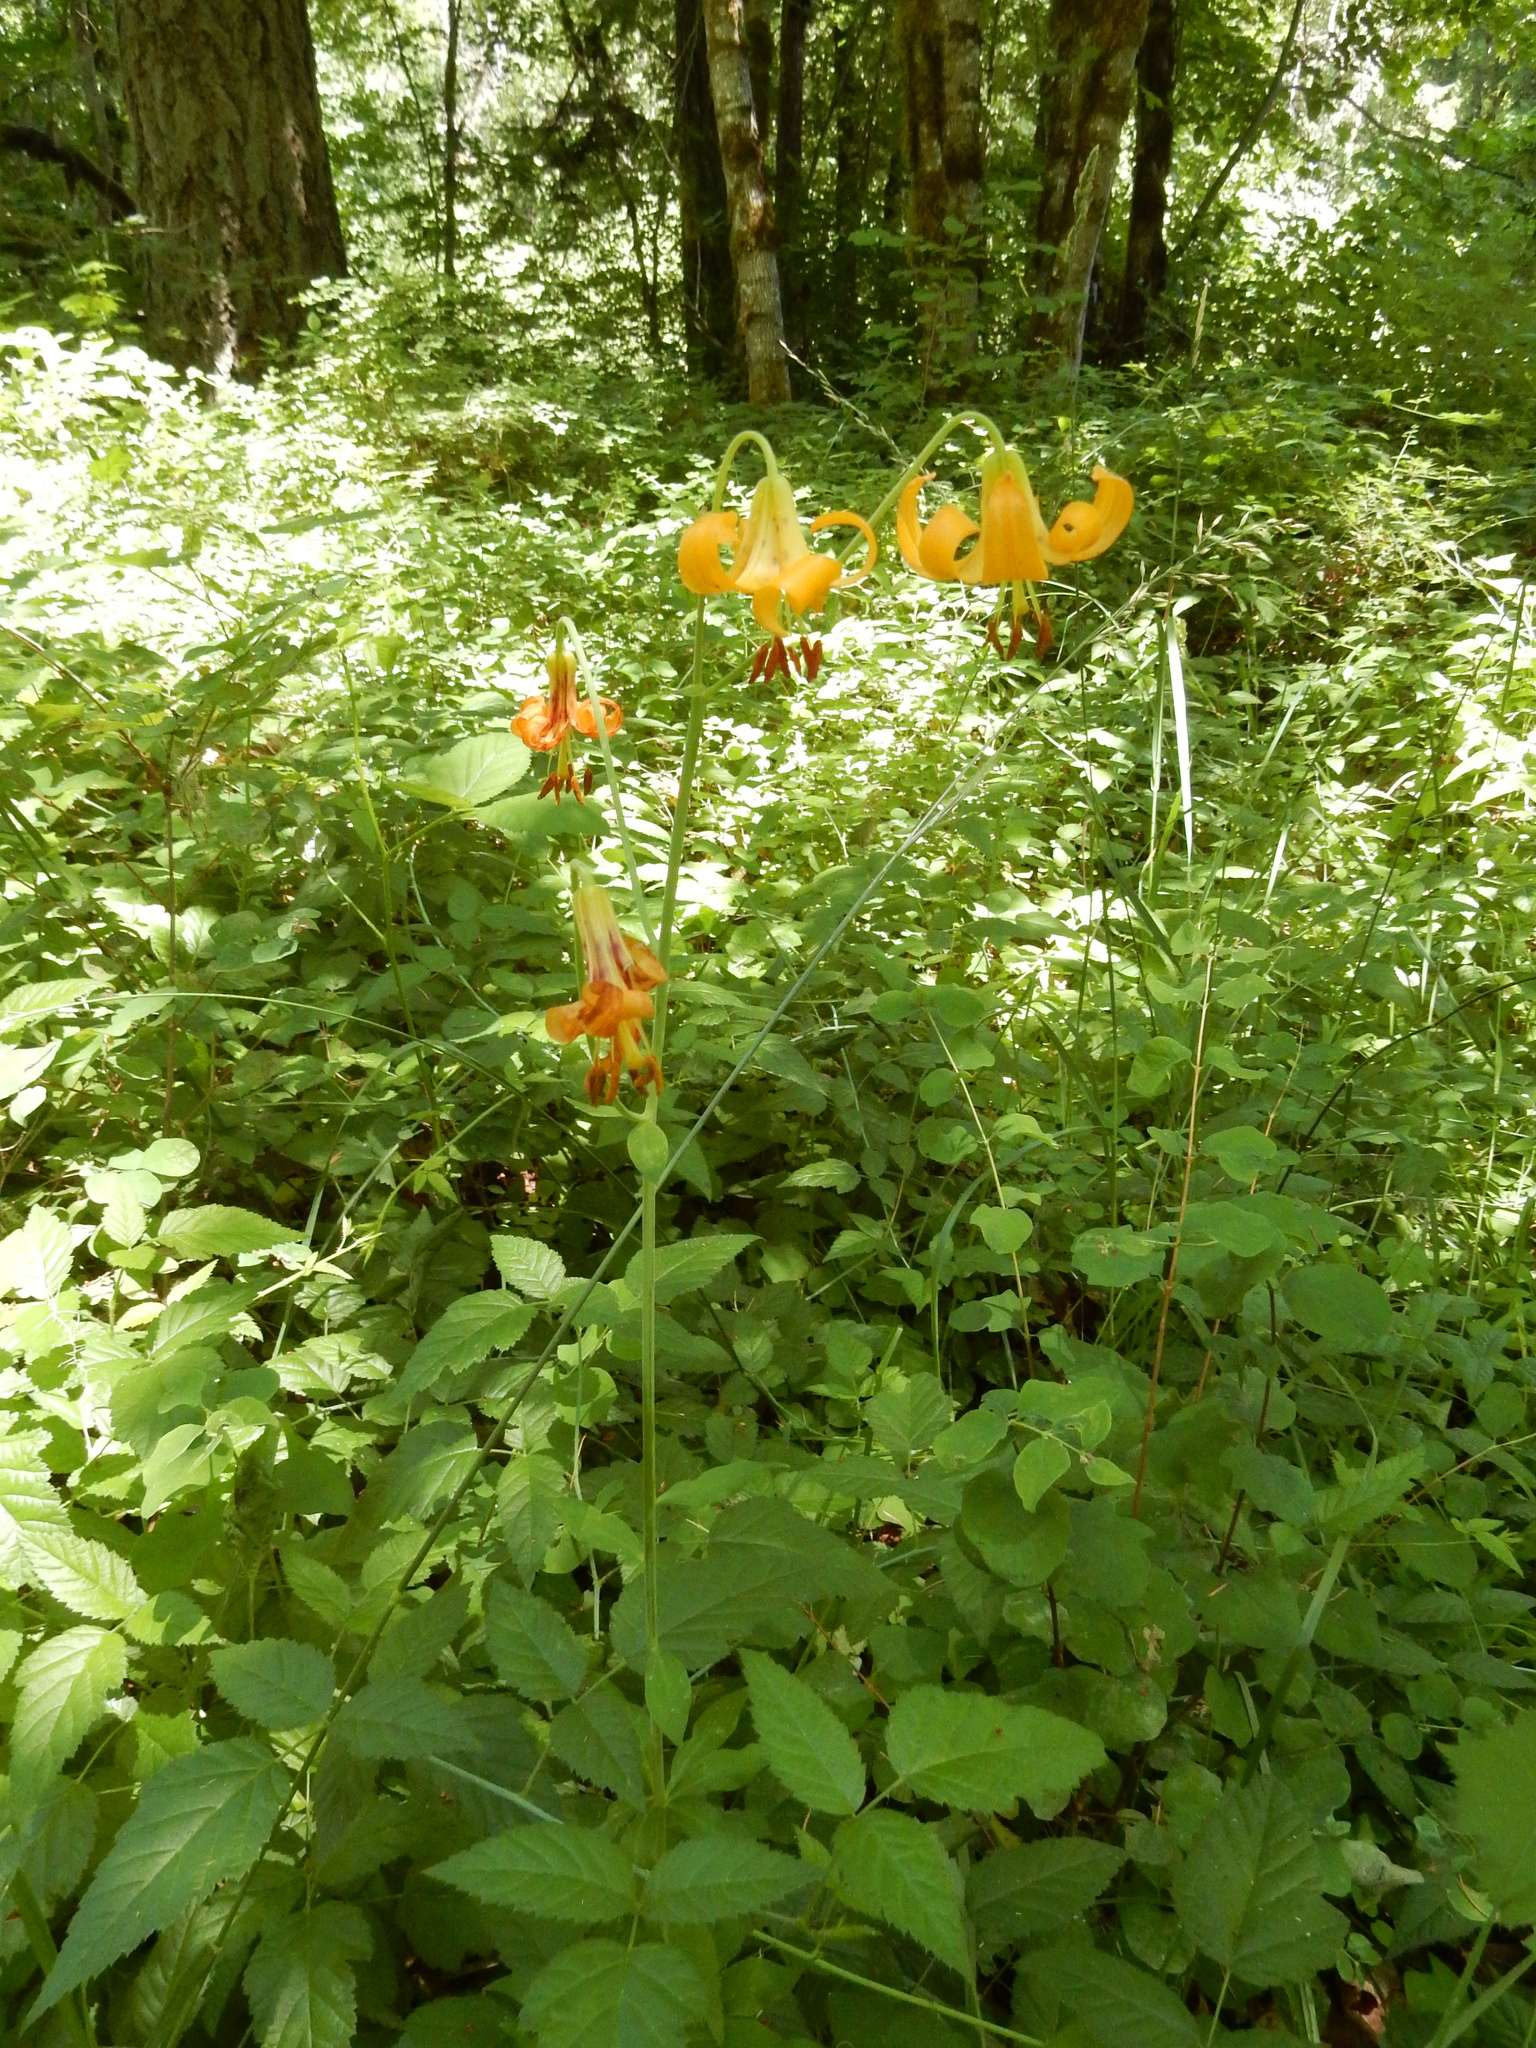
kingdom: Plantae
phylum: Tracheophyta
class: Liliopsida
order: Liliales
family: Liliaceae
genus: Lilium
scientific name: Lilium columbianum
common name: Columbia lily
